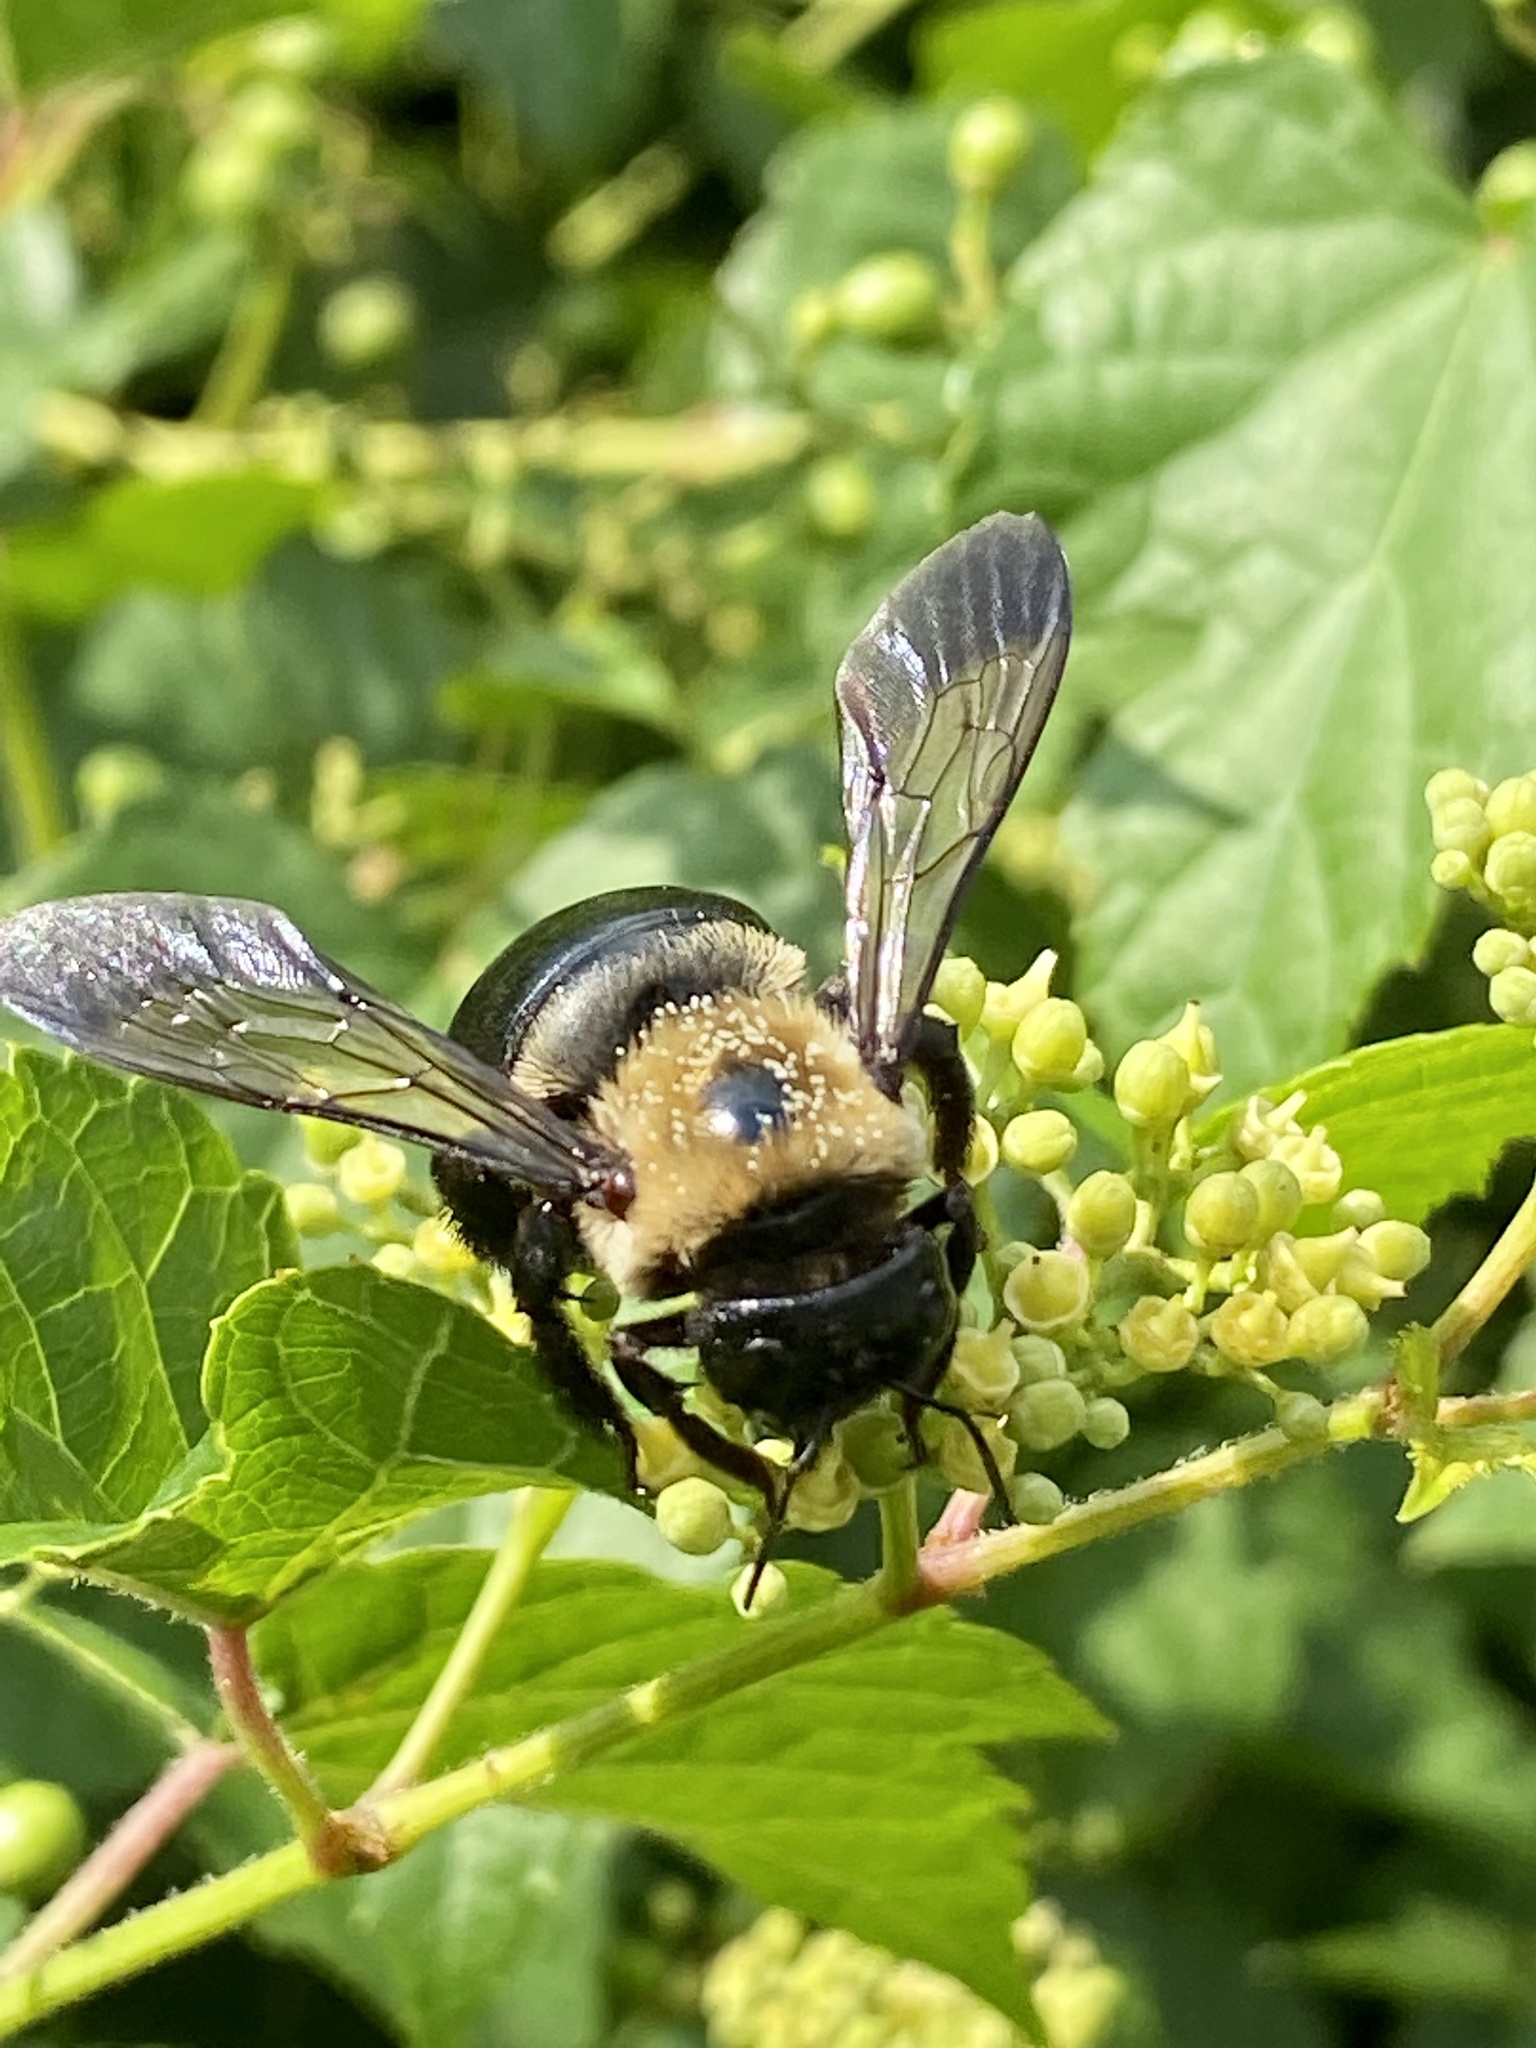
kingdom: Animalia
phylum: Arthropoda
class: Insecta
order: Hymenoptera
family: Apidae
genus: Xylocopa
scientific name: Xylocopa virginica
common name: Carpenter bee
